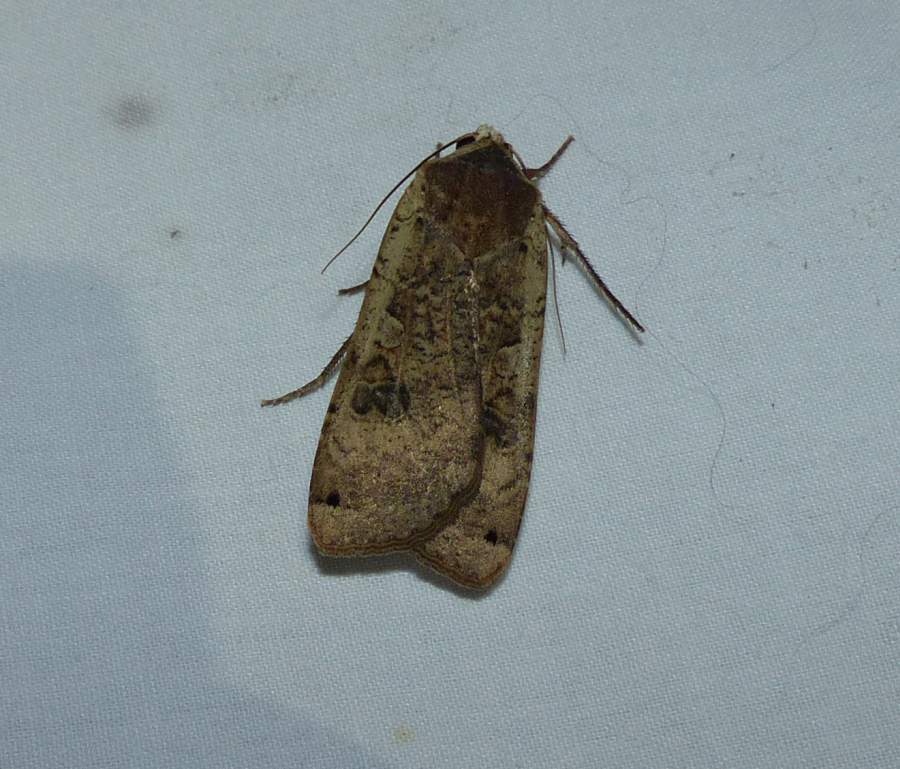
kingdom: Animalia
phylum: Arthropoda
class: Insecta
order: Lepidoptera
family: Noctuidae
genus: Noctua
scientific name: Noctua pronuba
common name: Large yellow underwing
